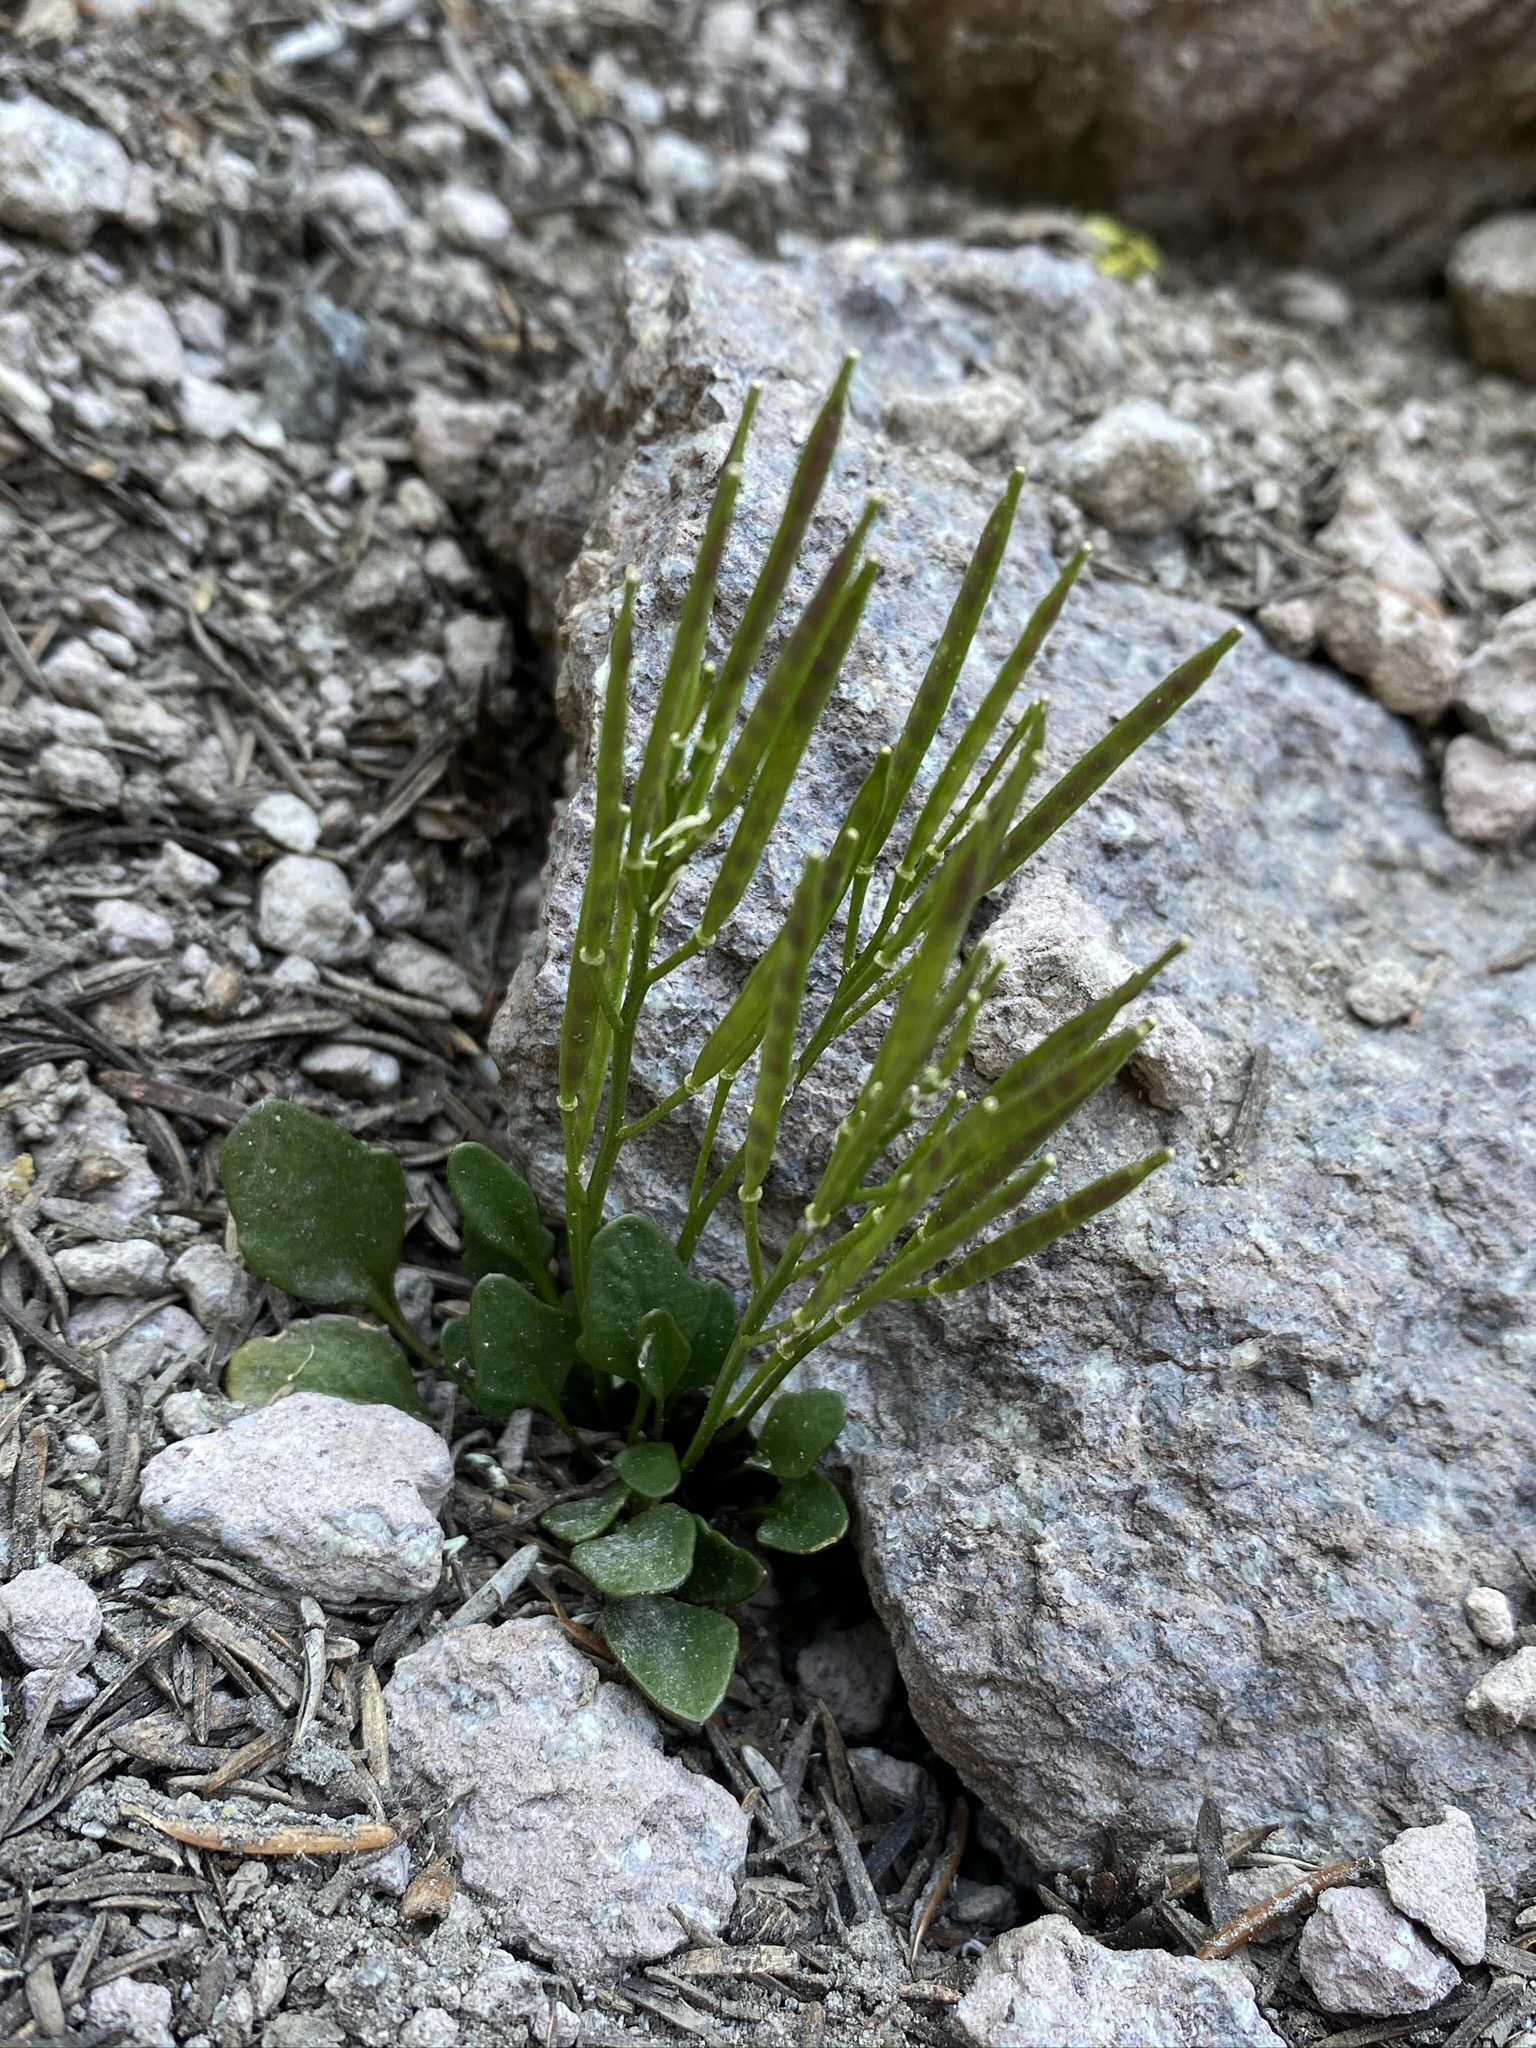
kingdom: Plantae
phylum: Tracheophyta
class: Magnoliopsida
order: Brassicales
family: Brassicaceae
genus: Cardamine
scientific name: Cardamine bellidifolia
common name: Alpine bittercress
